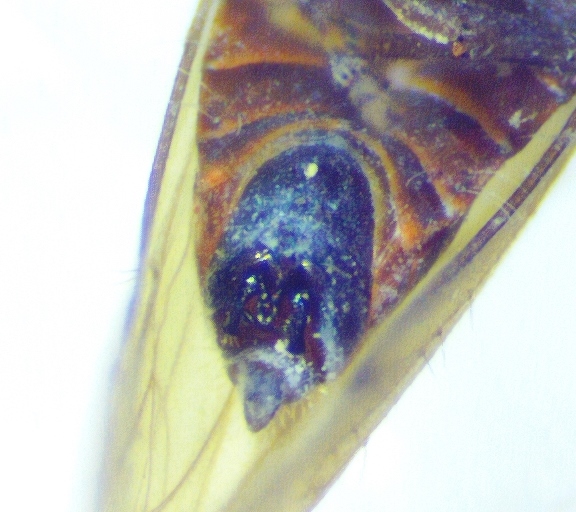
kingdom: Animalia
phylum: Arthropoda
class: Insecta
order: Hemiptera
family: Delphacidae
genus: Pareuidella
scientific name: Pareuidella triloba
